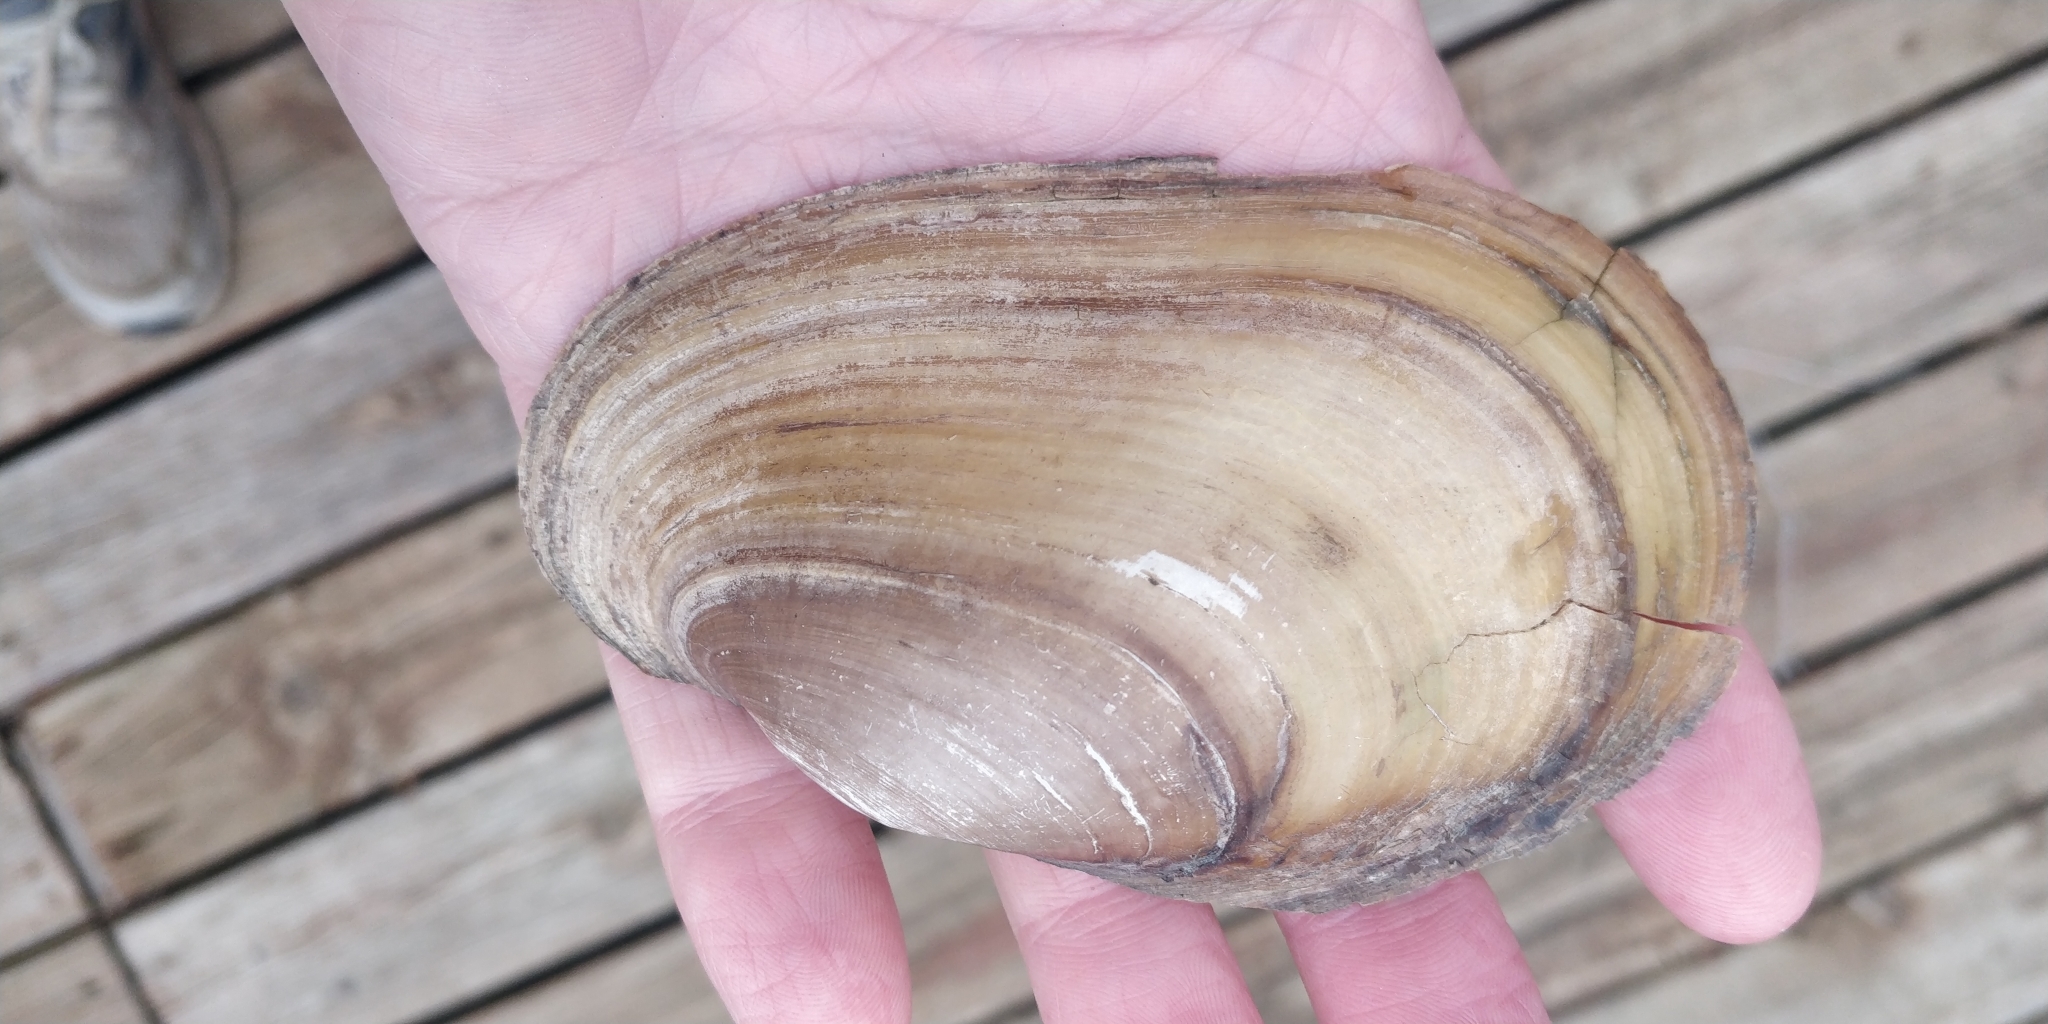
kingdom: Animalia
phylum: Mollusca
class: Bivalvia
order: Unionida
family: Unionidae
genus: Potamilus
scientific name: Potamilus fragilis
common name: Fragile papershell
